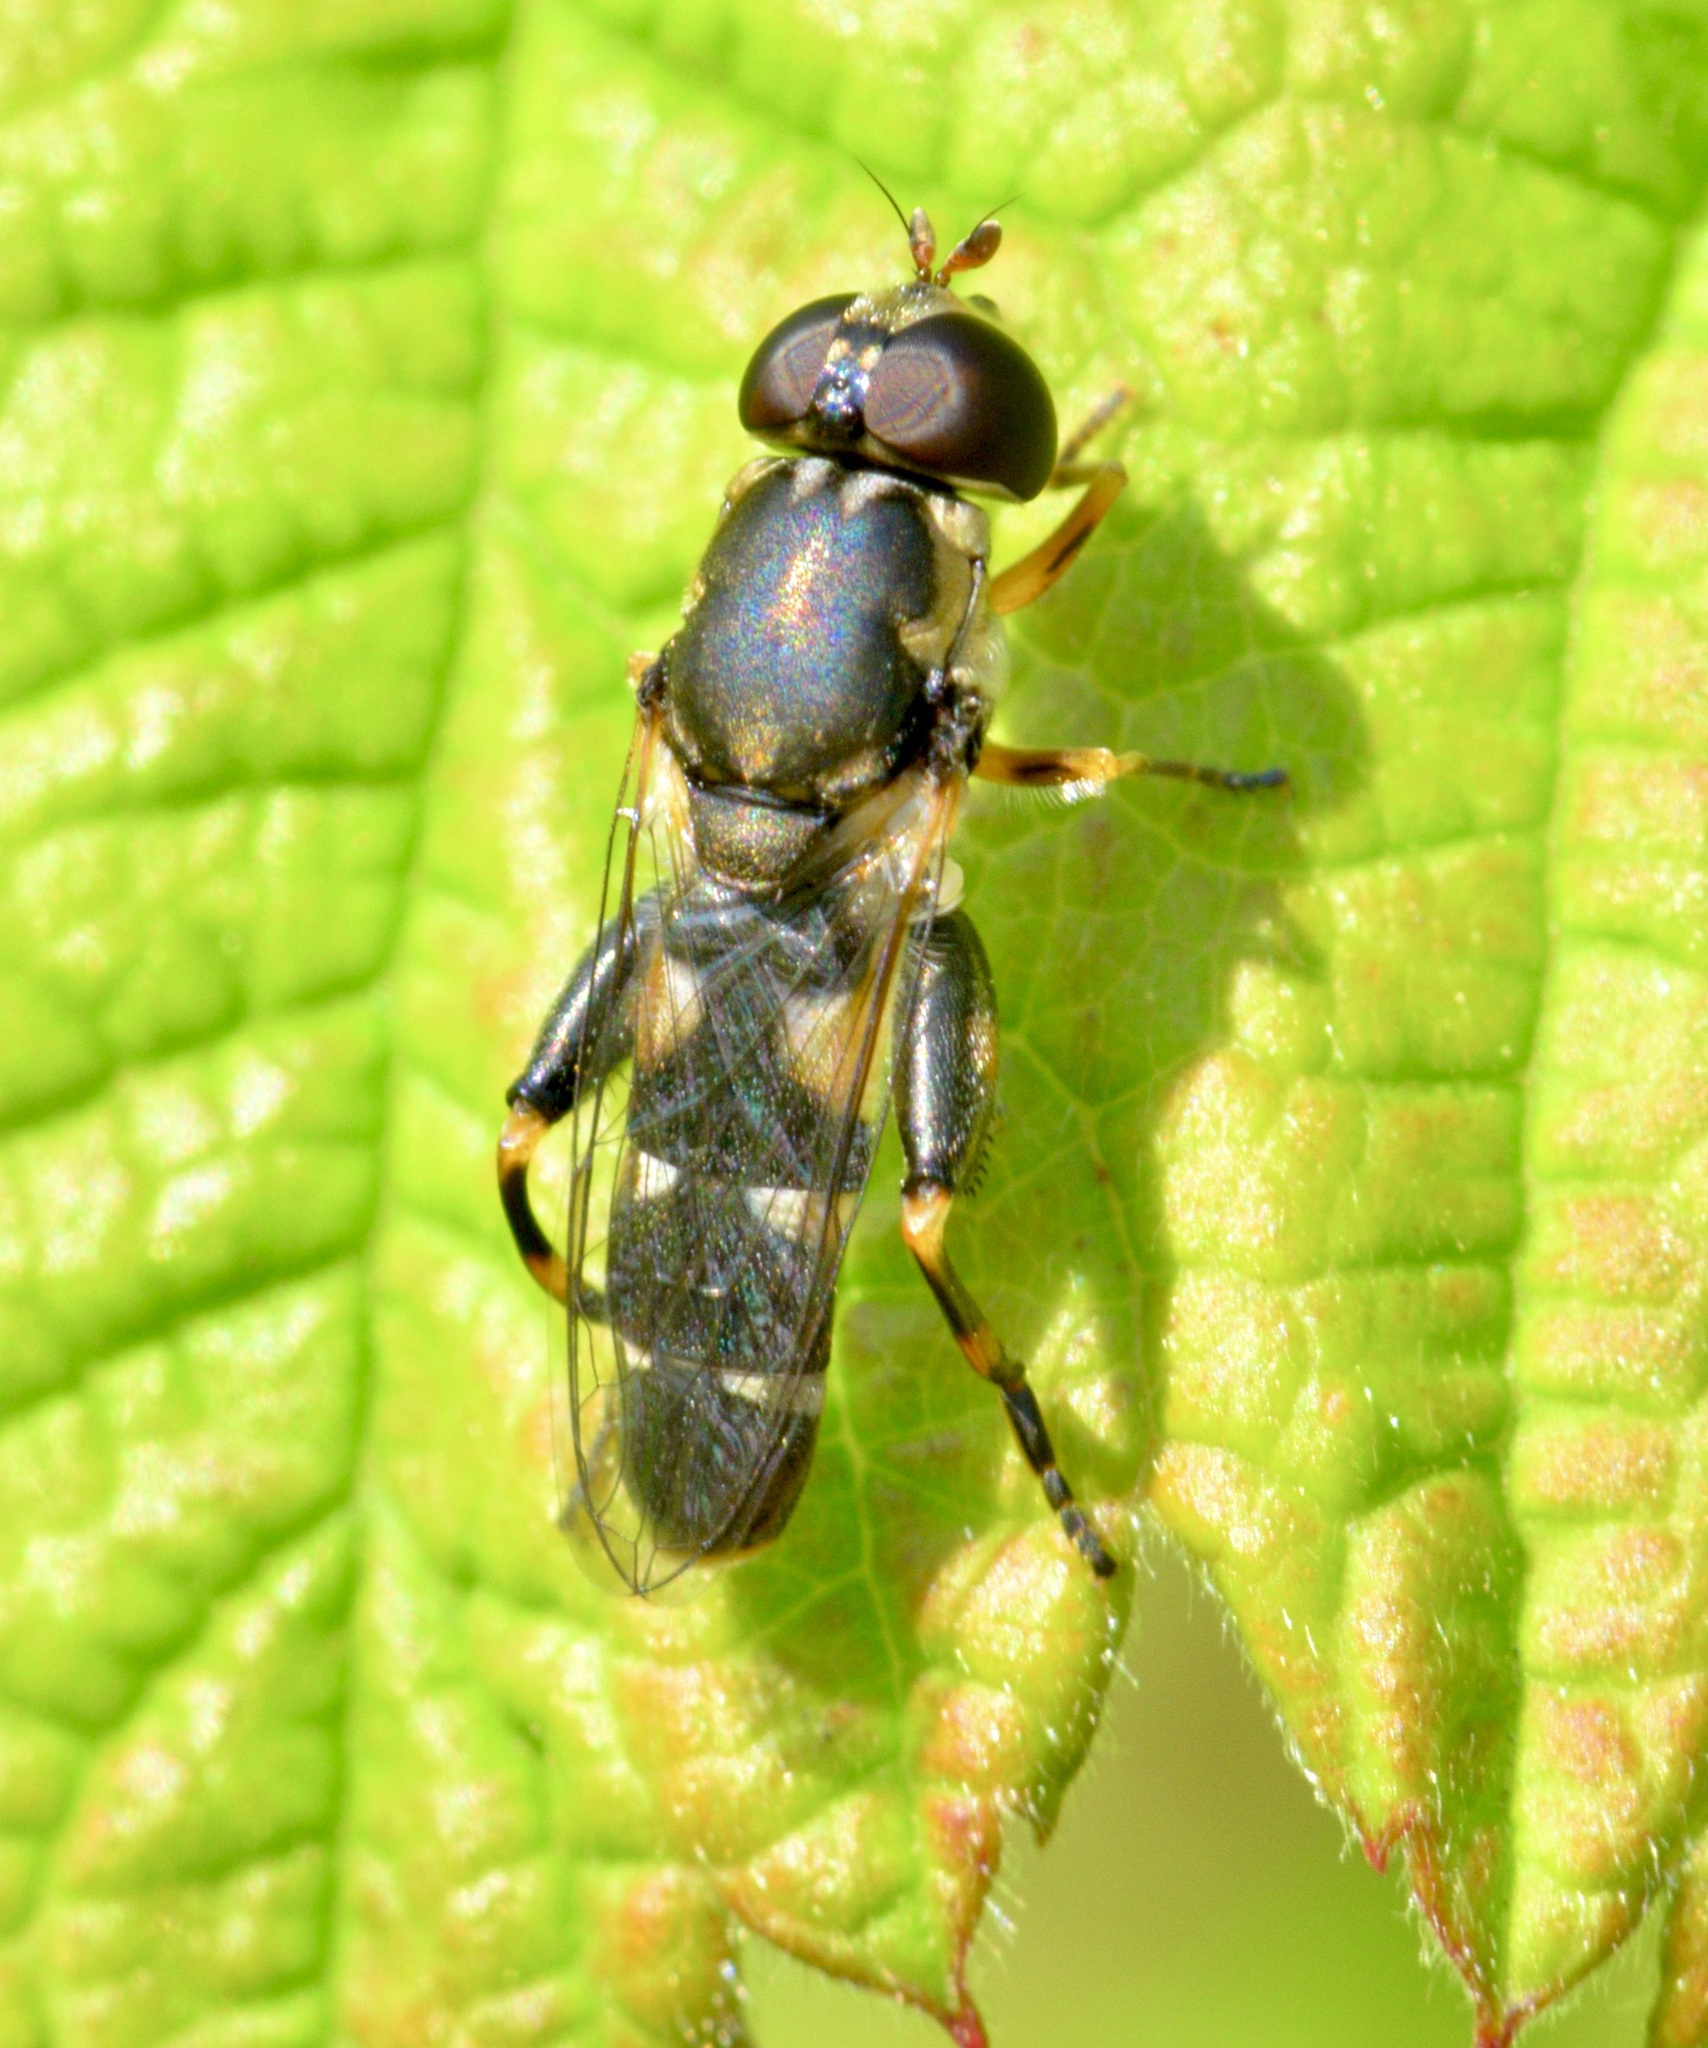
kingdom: Animalia
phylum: Arthropoda
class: Insecta
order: Diptera
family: Syrphidae
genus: Syritta
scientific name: Syritta pipiens
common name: Hover fly
